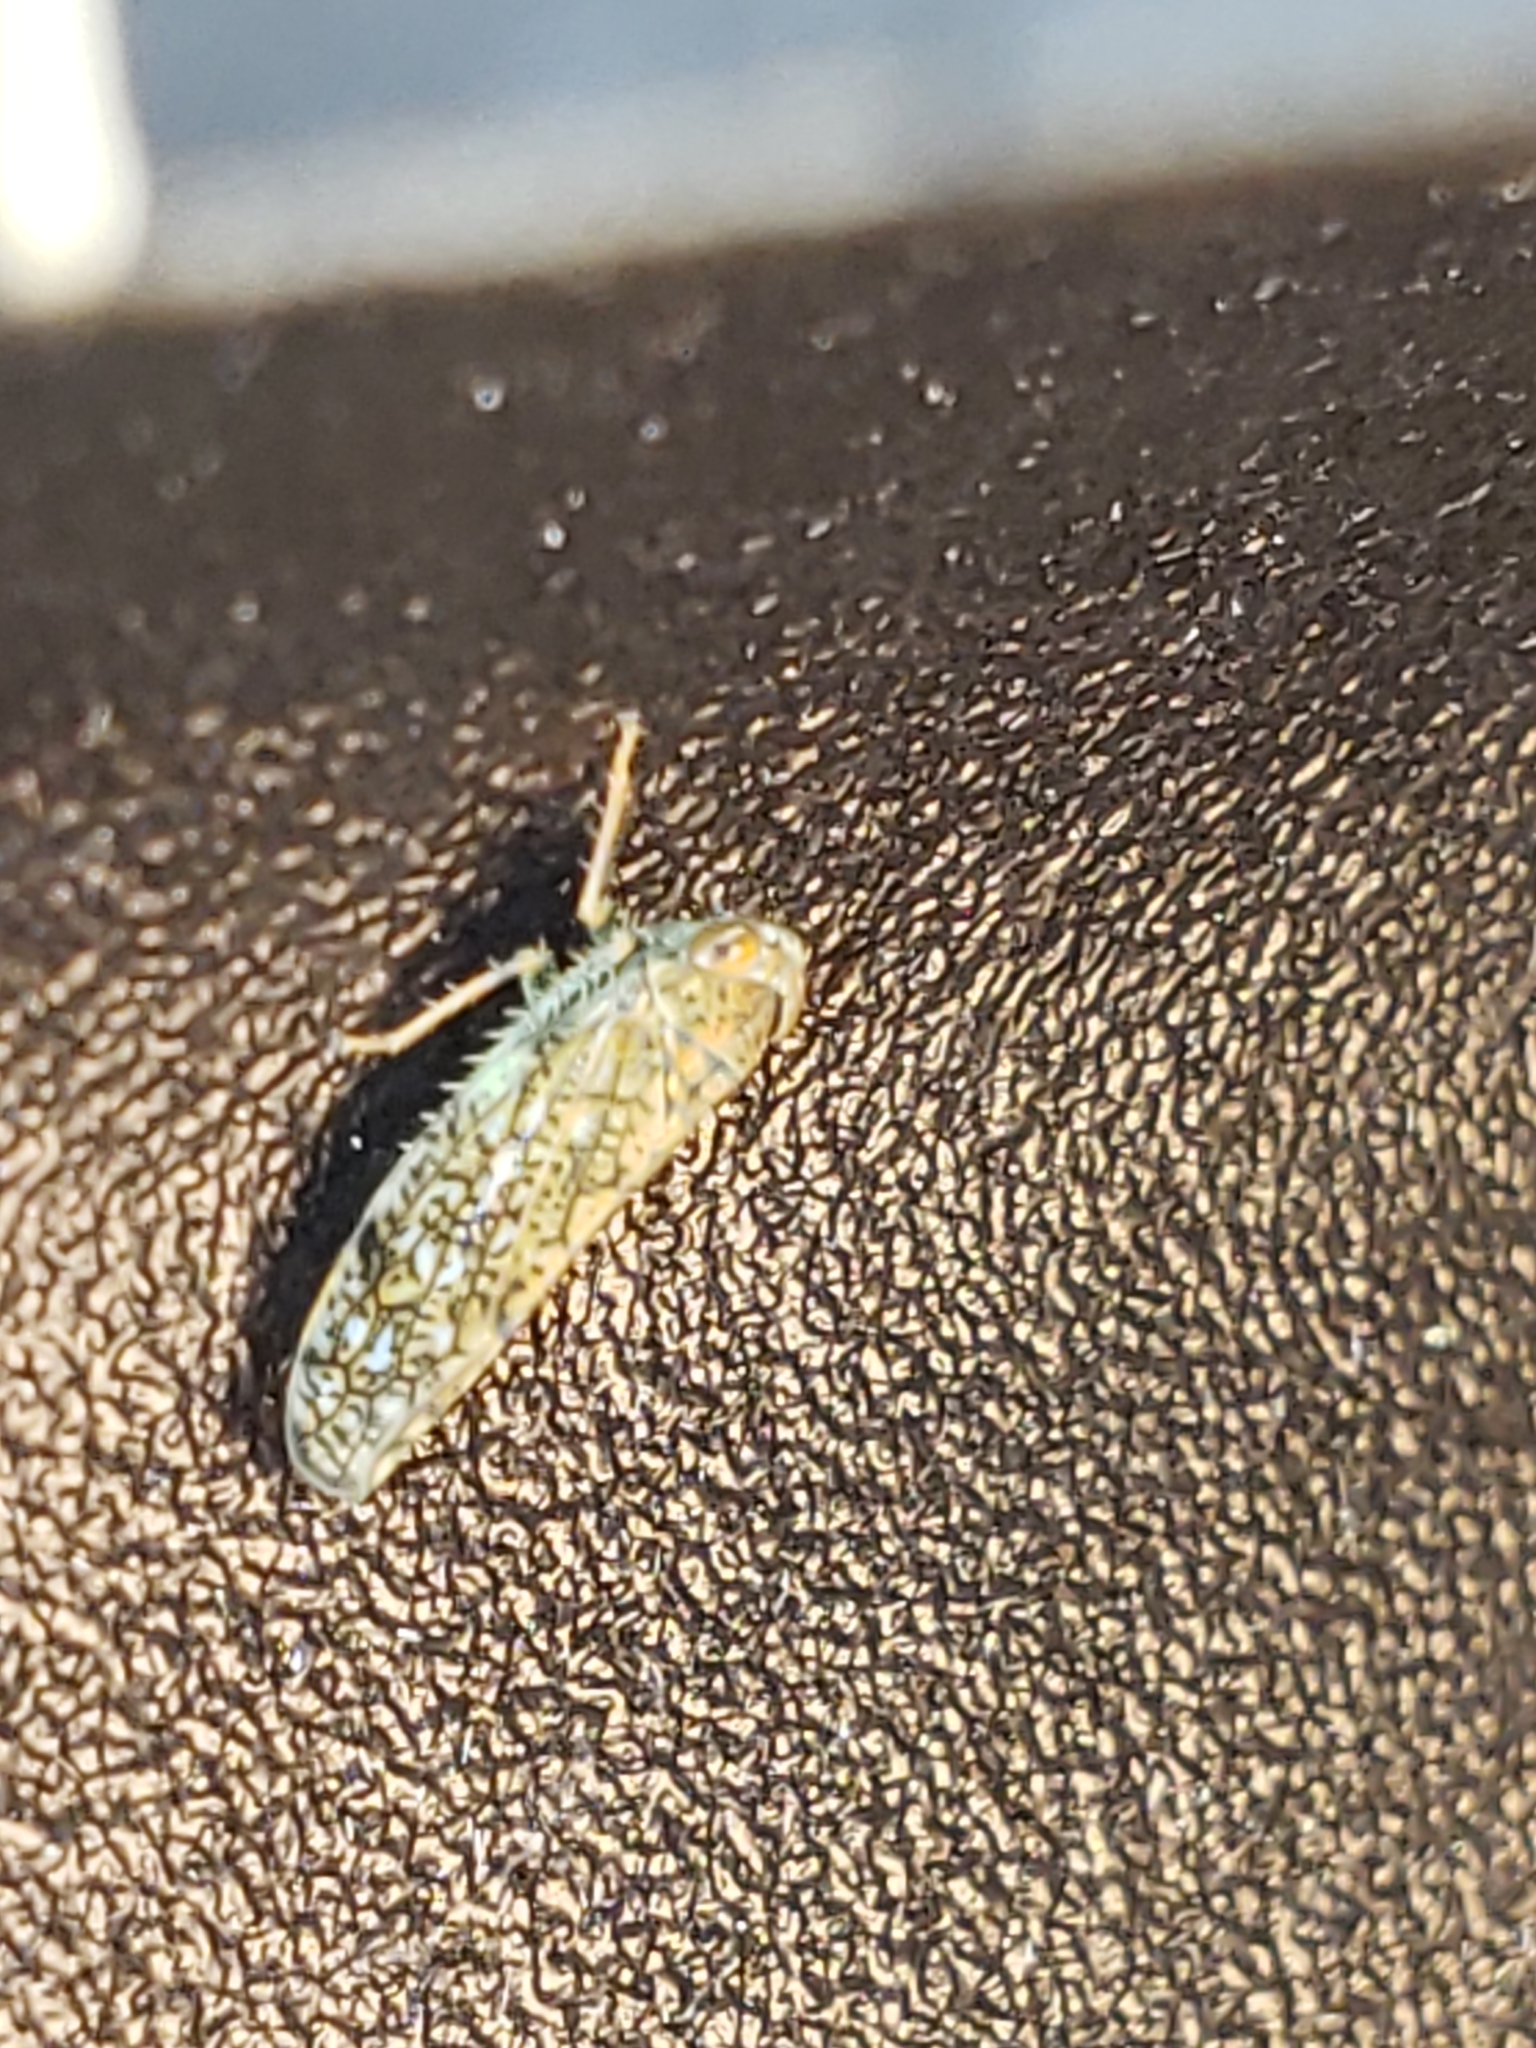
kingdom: Animalia
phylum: Arthropoda
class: Insecta
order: Hemiptera
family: Cicadellidae
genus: Orientus
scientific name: Orientus ishidae
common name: Japanese leafhopper
